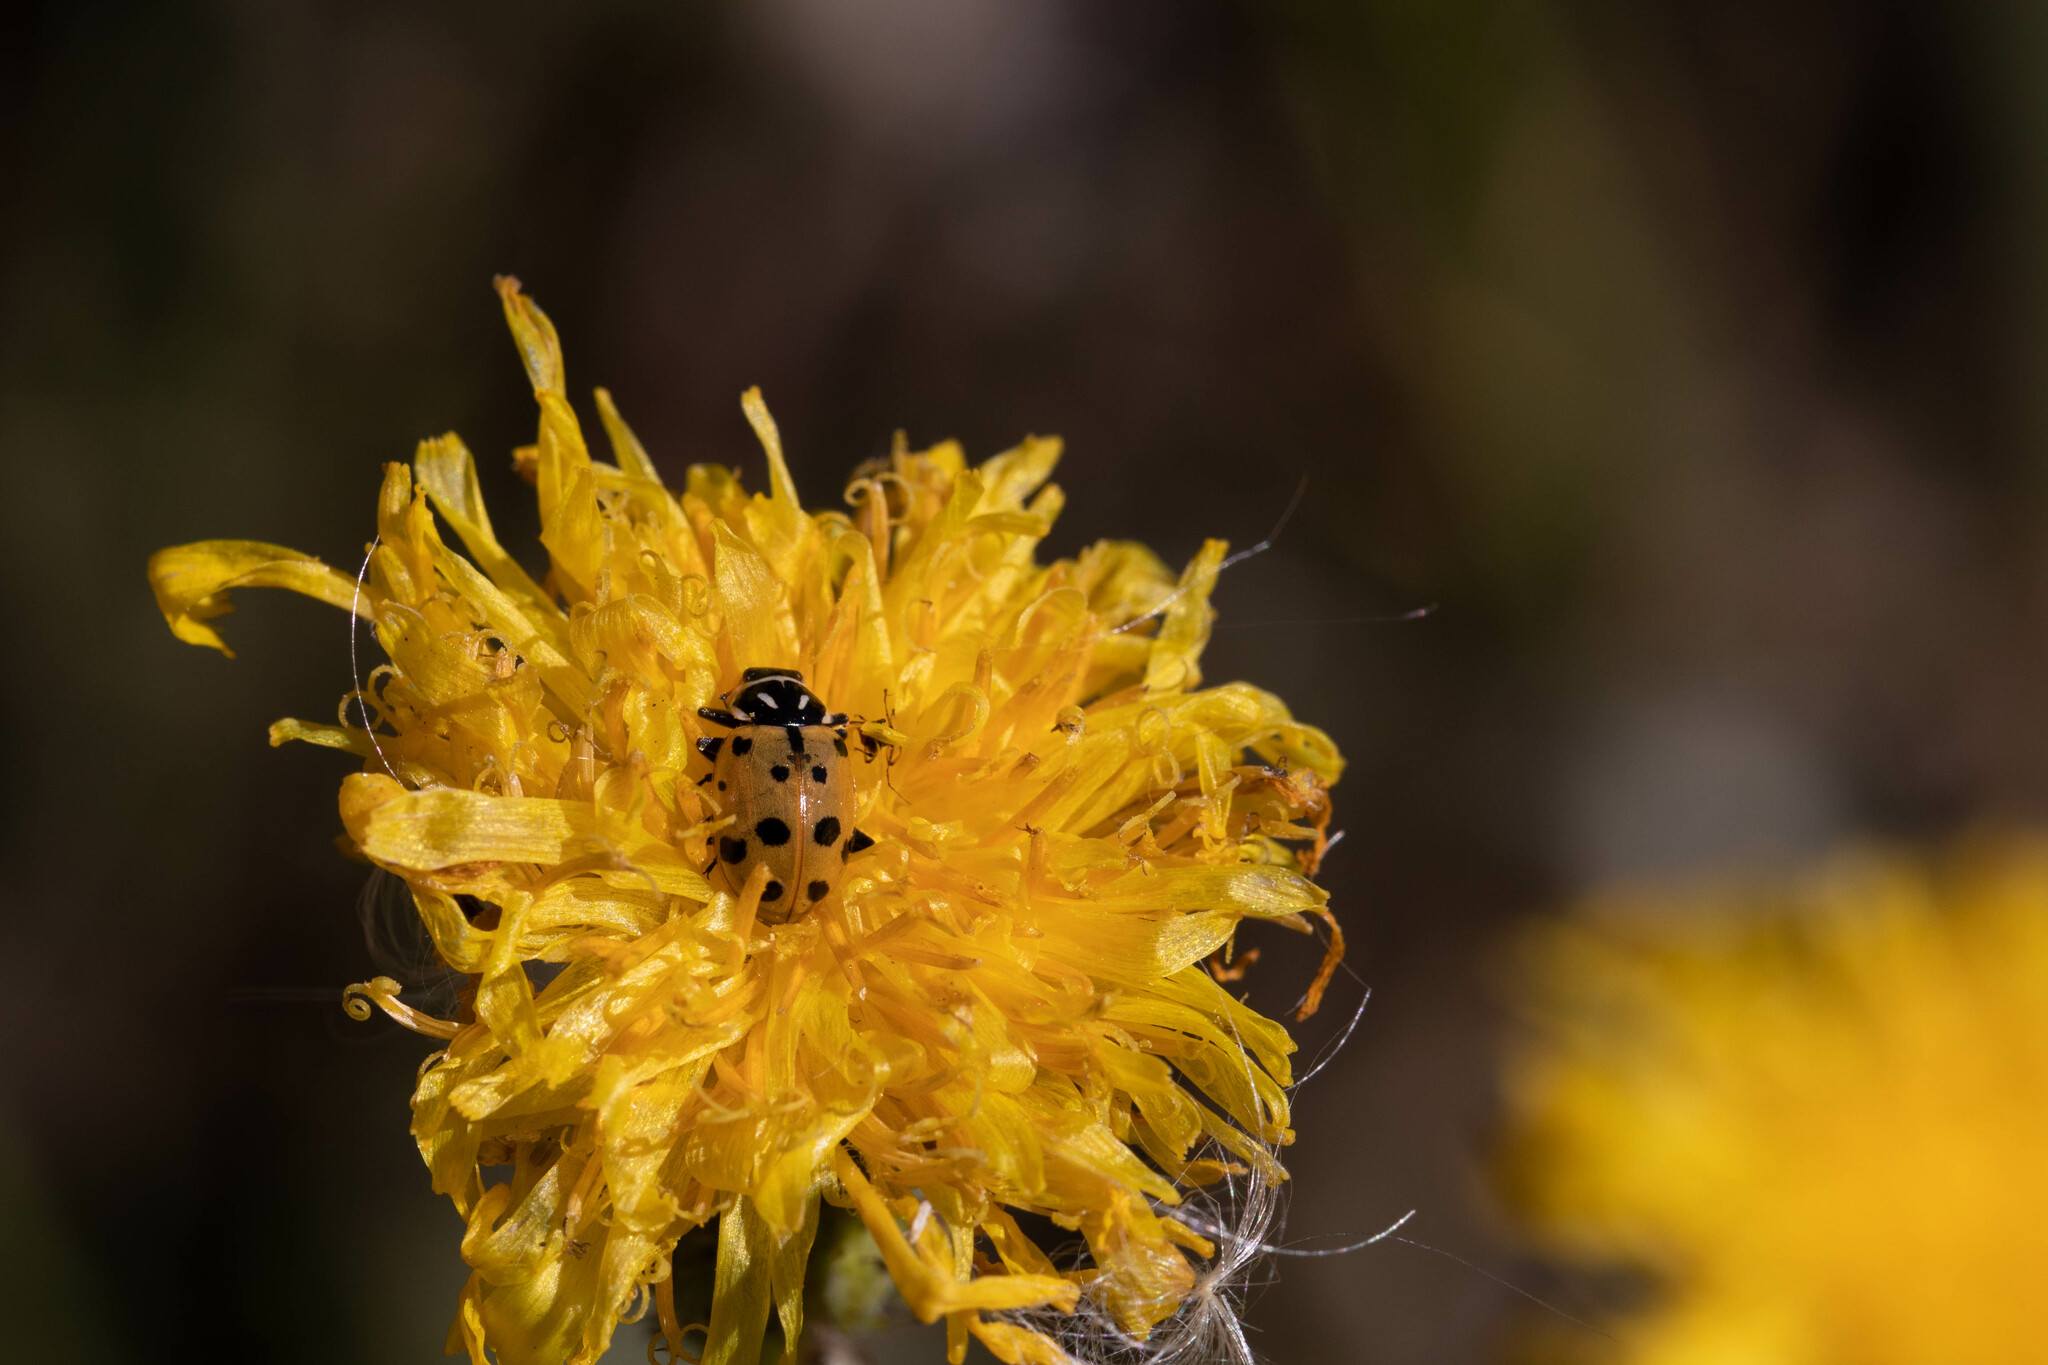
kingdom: Animalia
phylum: Arthropoda
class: Insecta
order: Coleoptera
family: Coccinellidae
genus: Hippodamia
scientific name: Hippodamia convergens
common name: Convergent lady beetle
